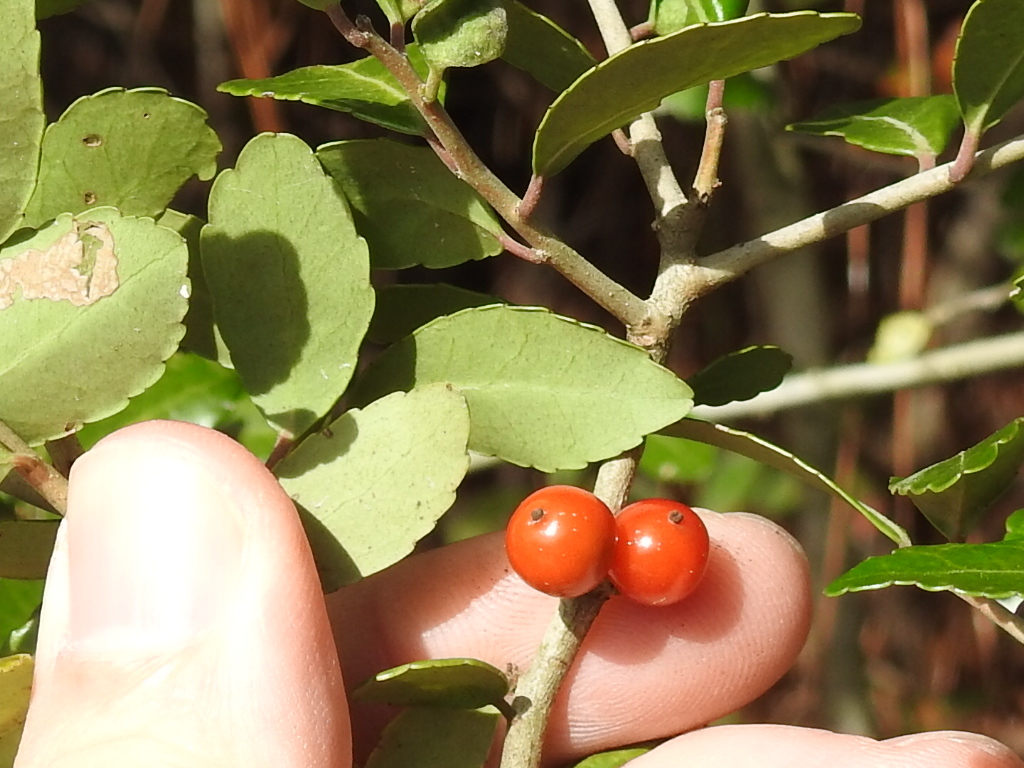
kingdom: Plantae
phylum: Tracheophyta
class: Magnoliopsida
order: Aquifoliales
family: Aquifoliaceae
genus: Ilex
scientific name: Ilex vomitoria
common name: Yaupon holly
